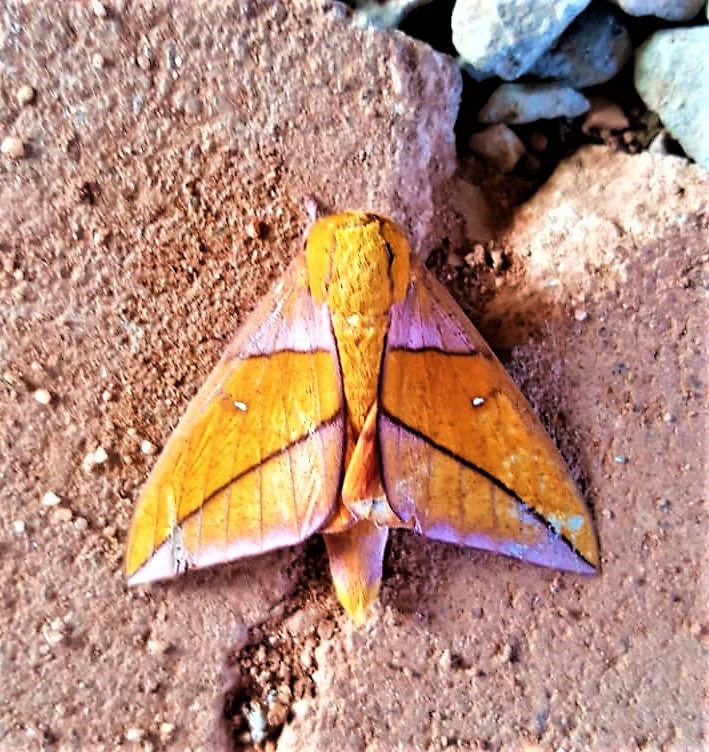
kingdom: Animalia
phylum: Arthropoda
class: Insecta
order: Lepidoptera
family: Saturniidae
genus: Adeloneivaia
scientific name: Adeloneivaia jason
